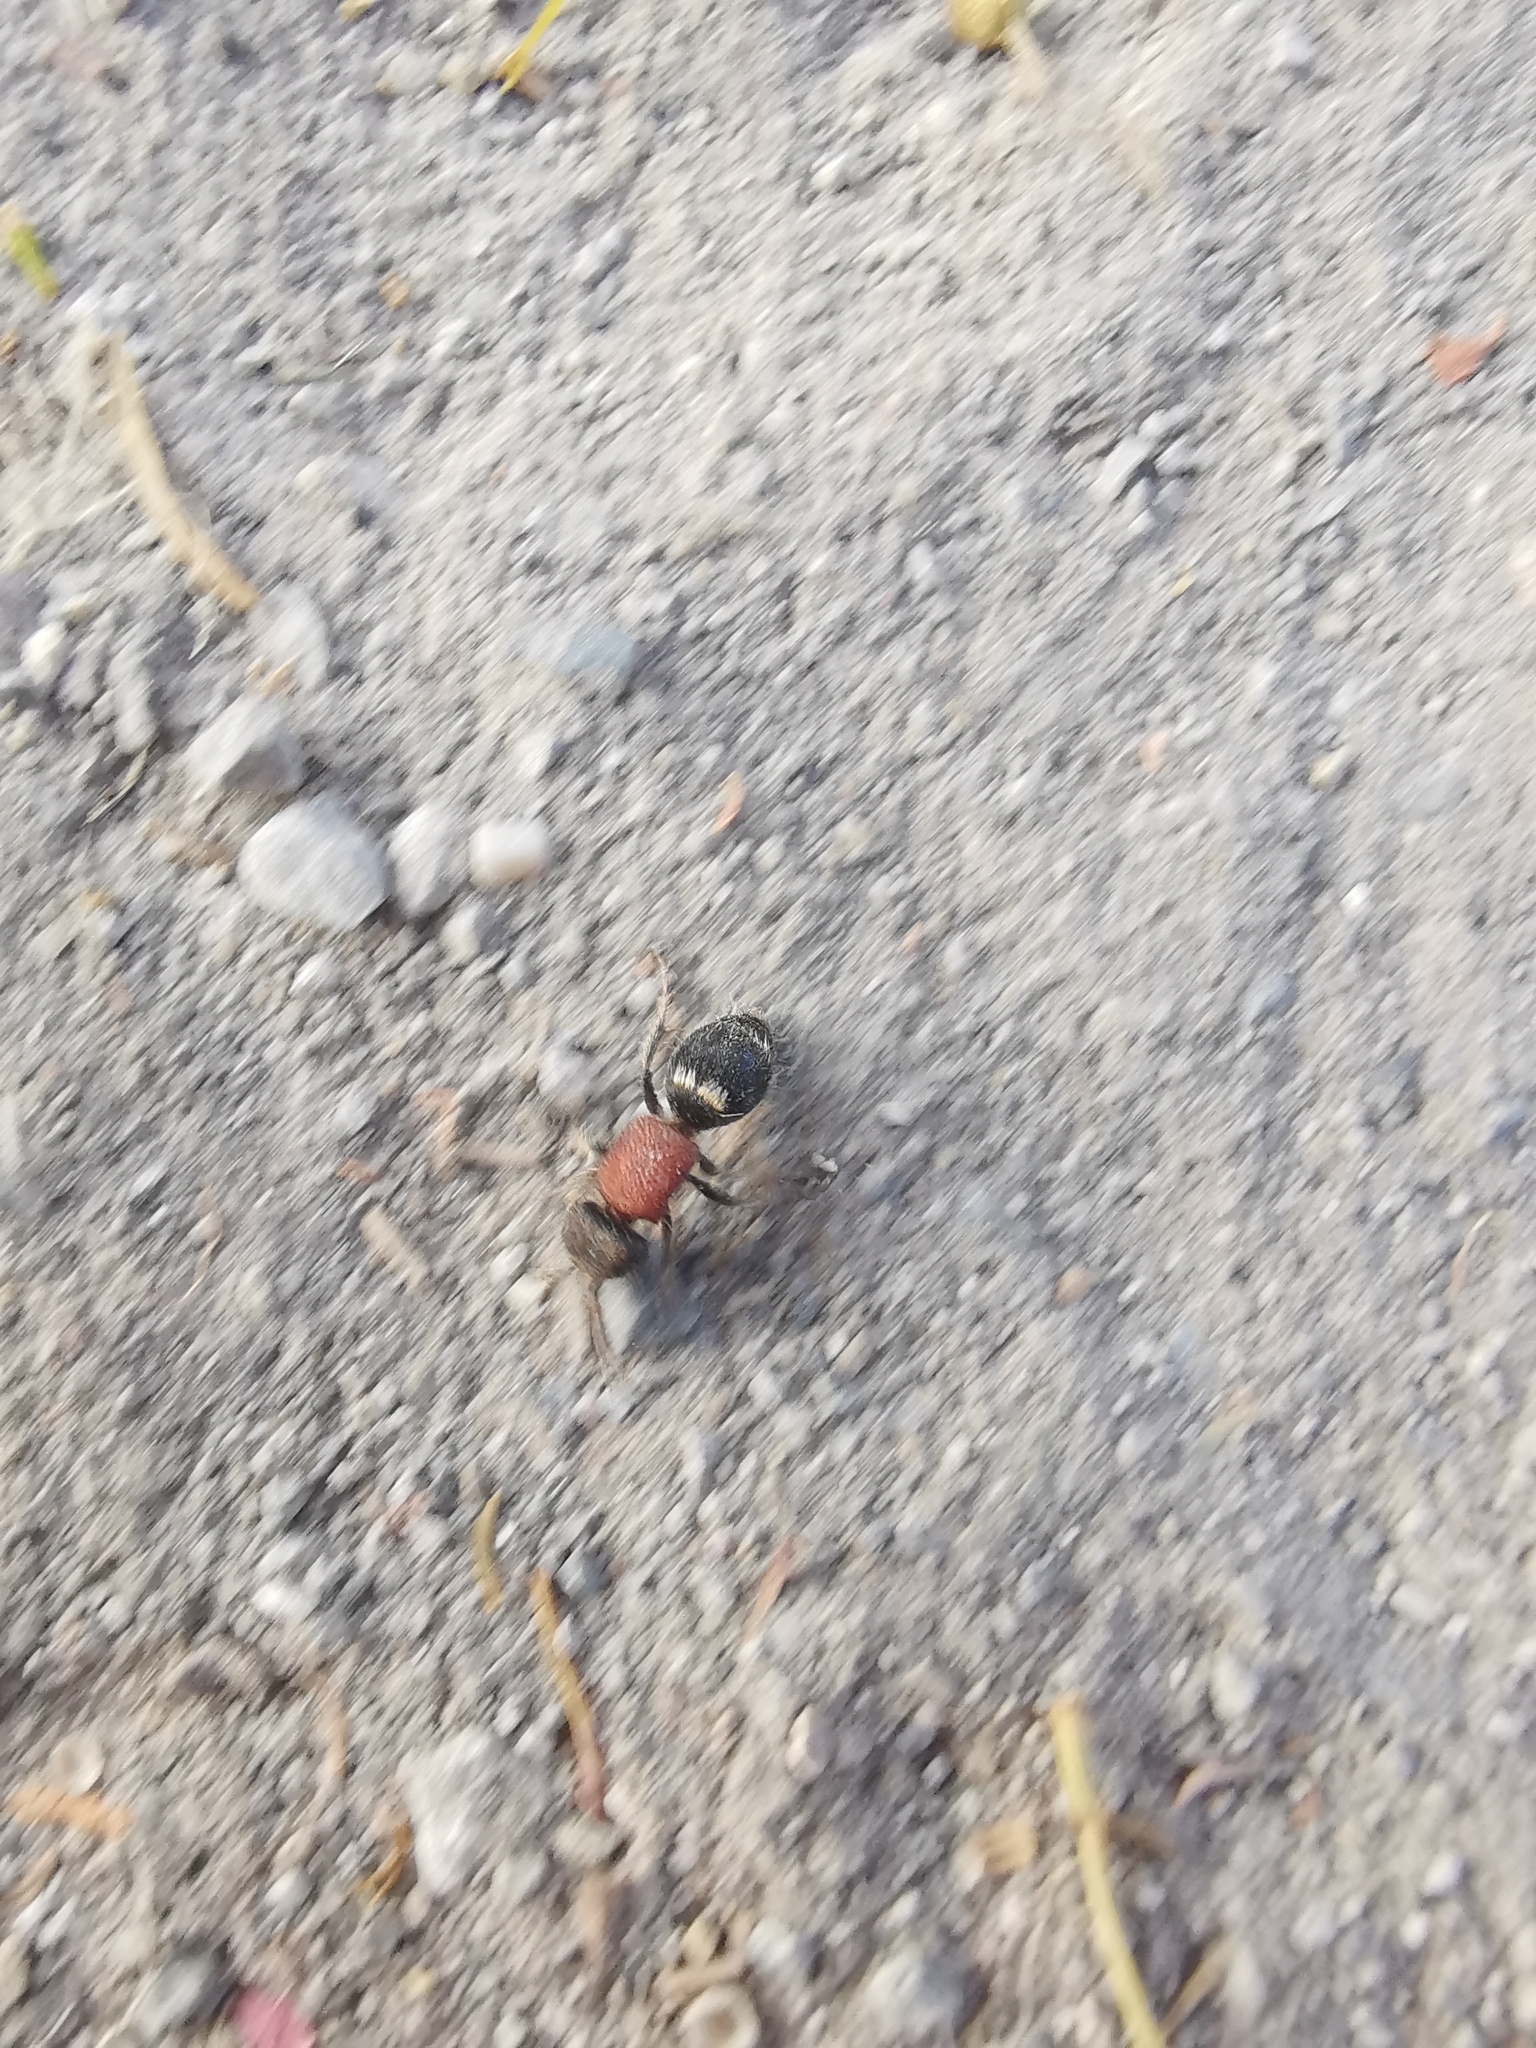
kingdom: Animalia
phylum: Arthropoda
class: Insecta
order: Hymenoptera
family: Mutillidae
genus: Tropidotilla
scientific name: Tropidotilla litoralis
